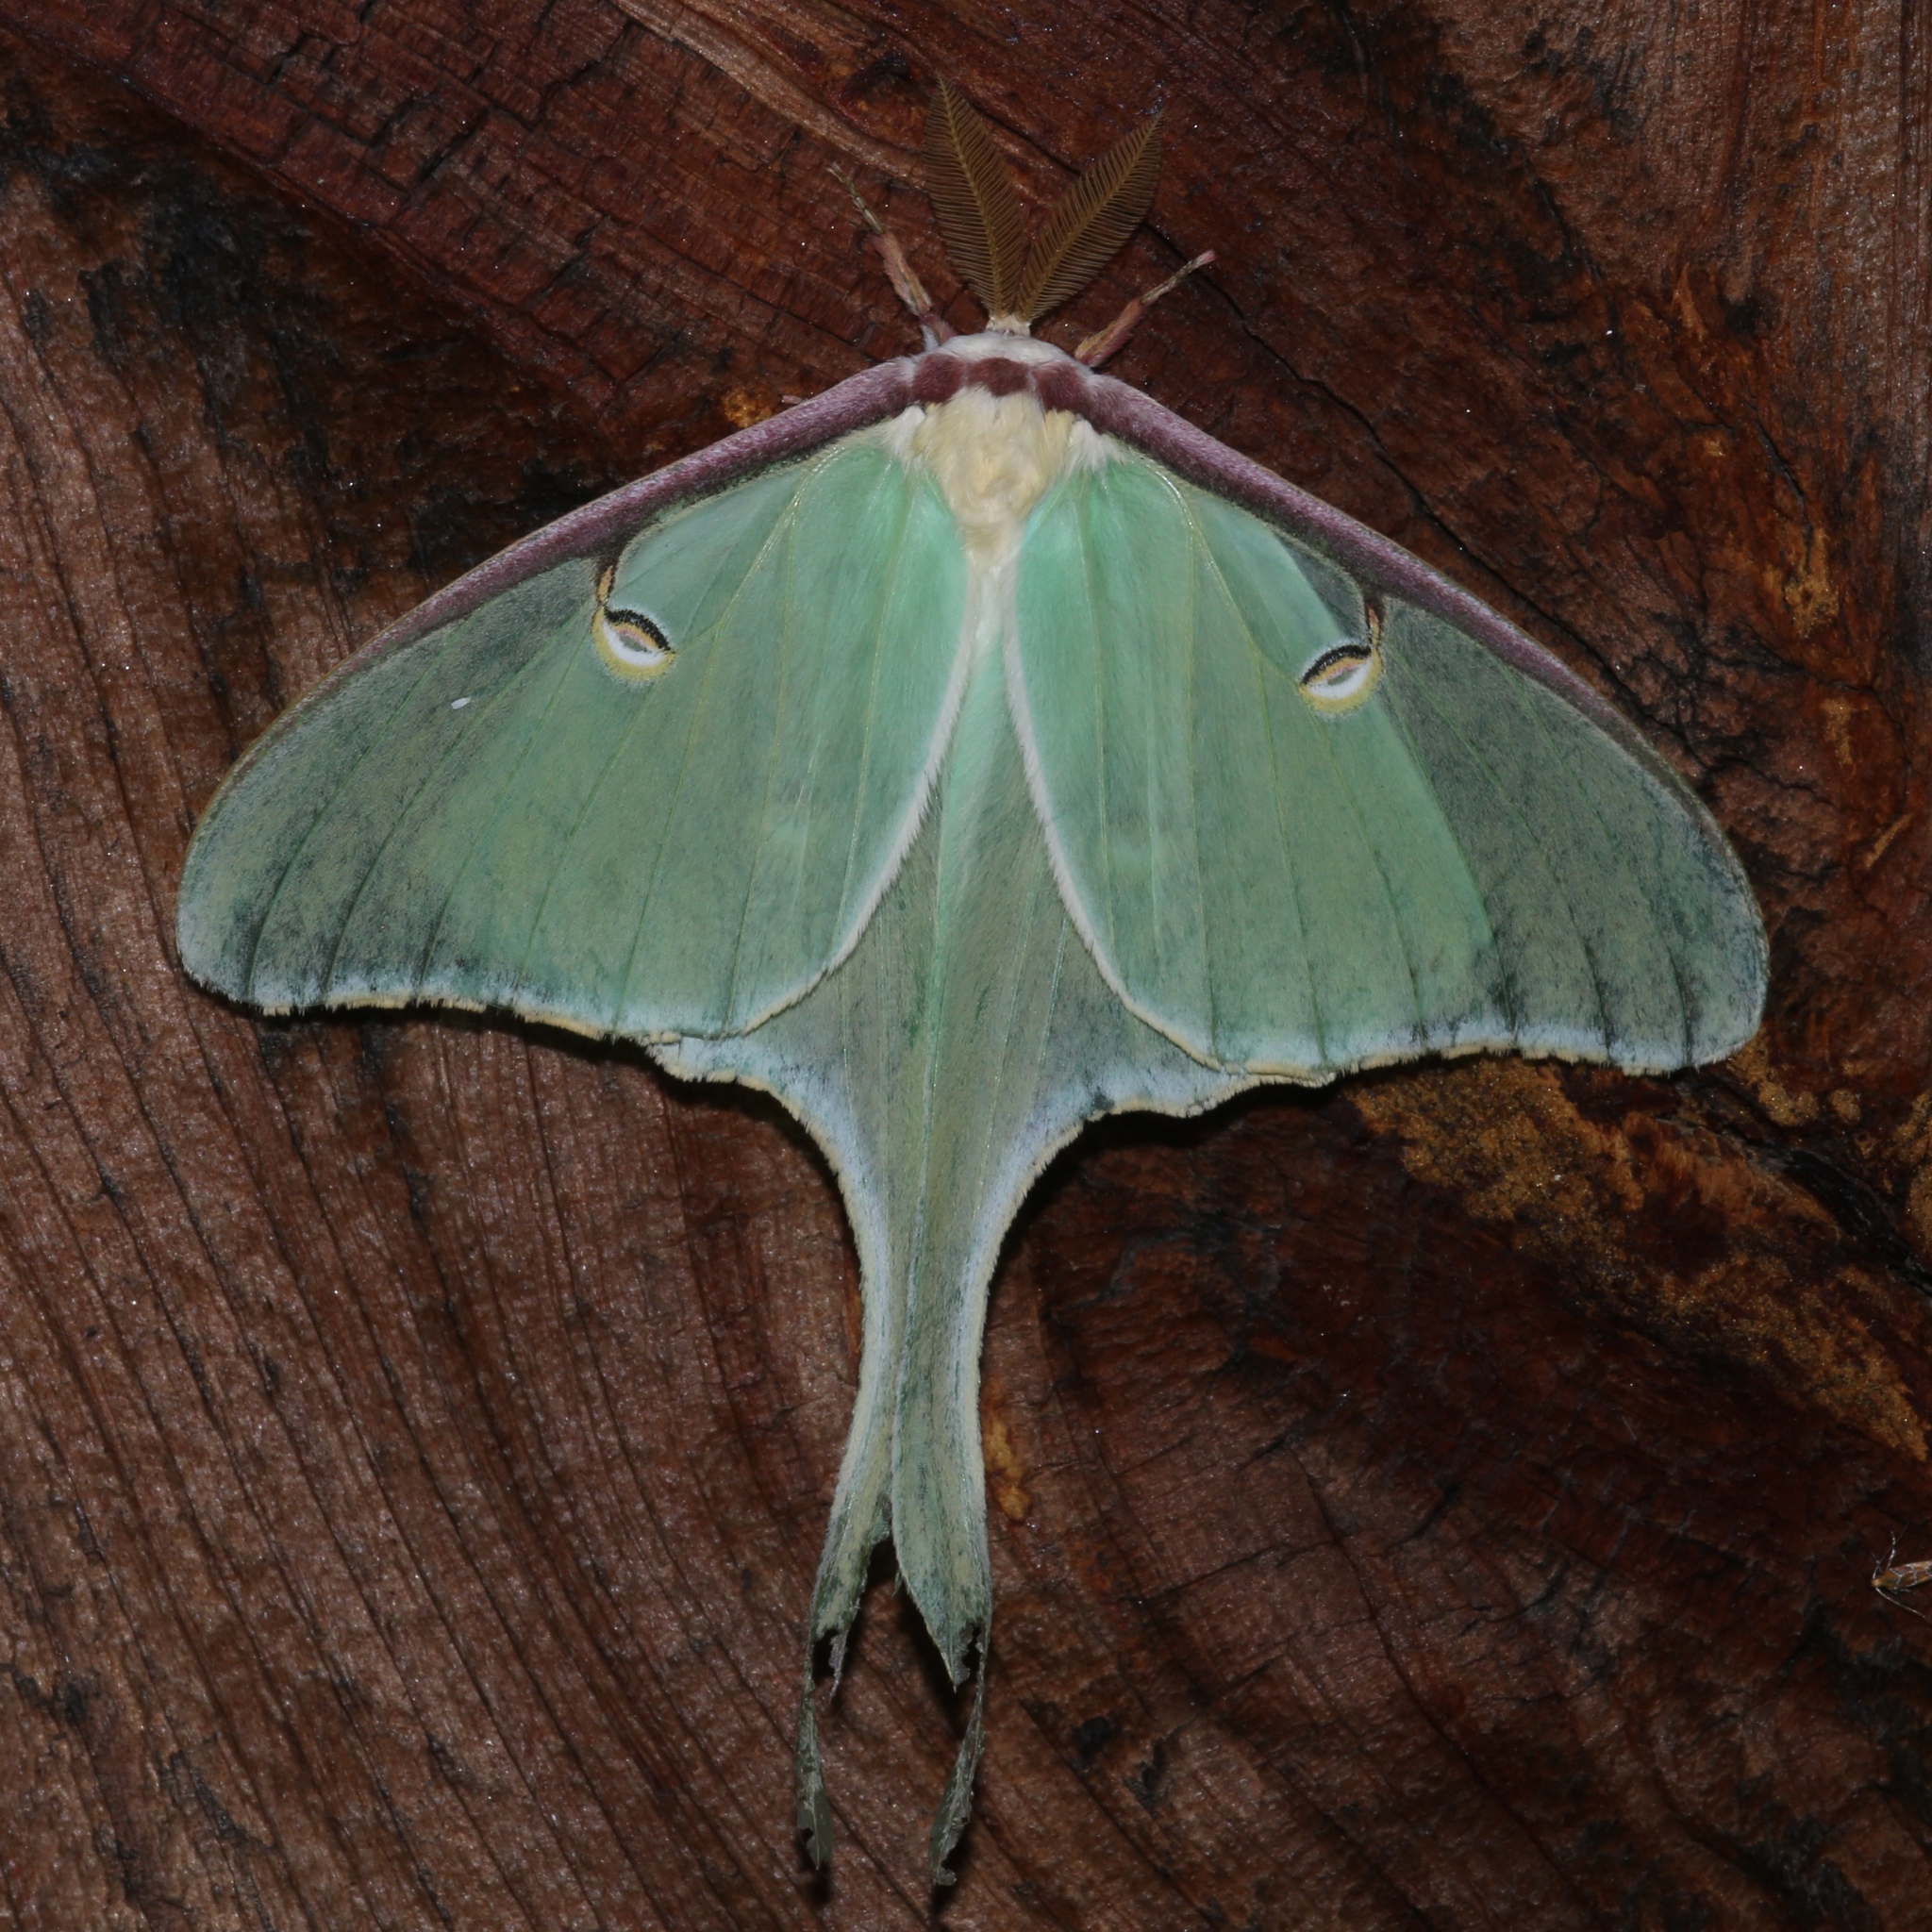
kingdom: Animalia
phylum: Arthropoda
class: Insecta
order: Lepidoptera
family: Saturniidae
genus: Actias
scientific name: Actias luna
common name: Luna moth
